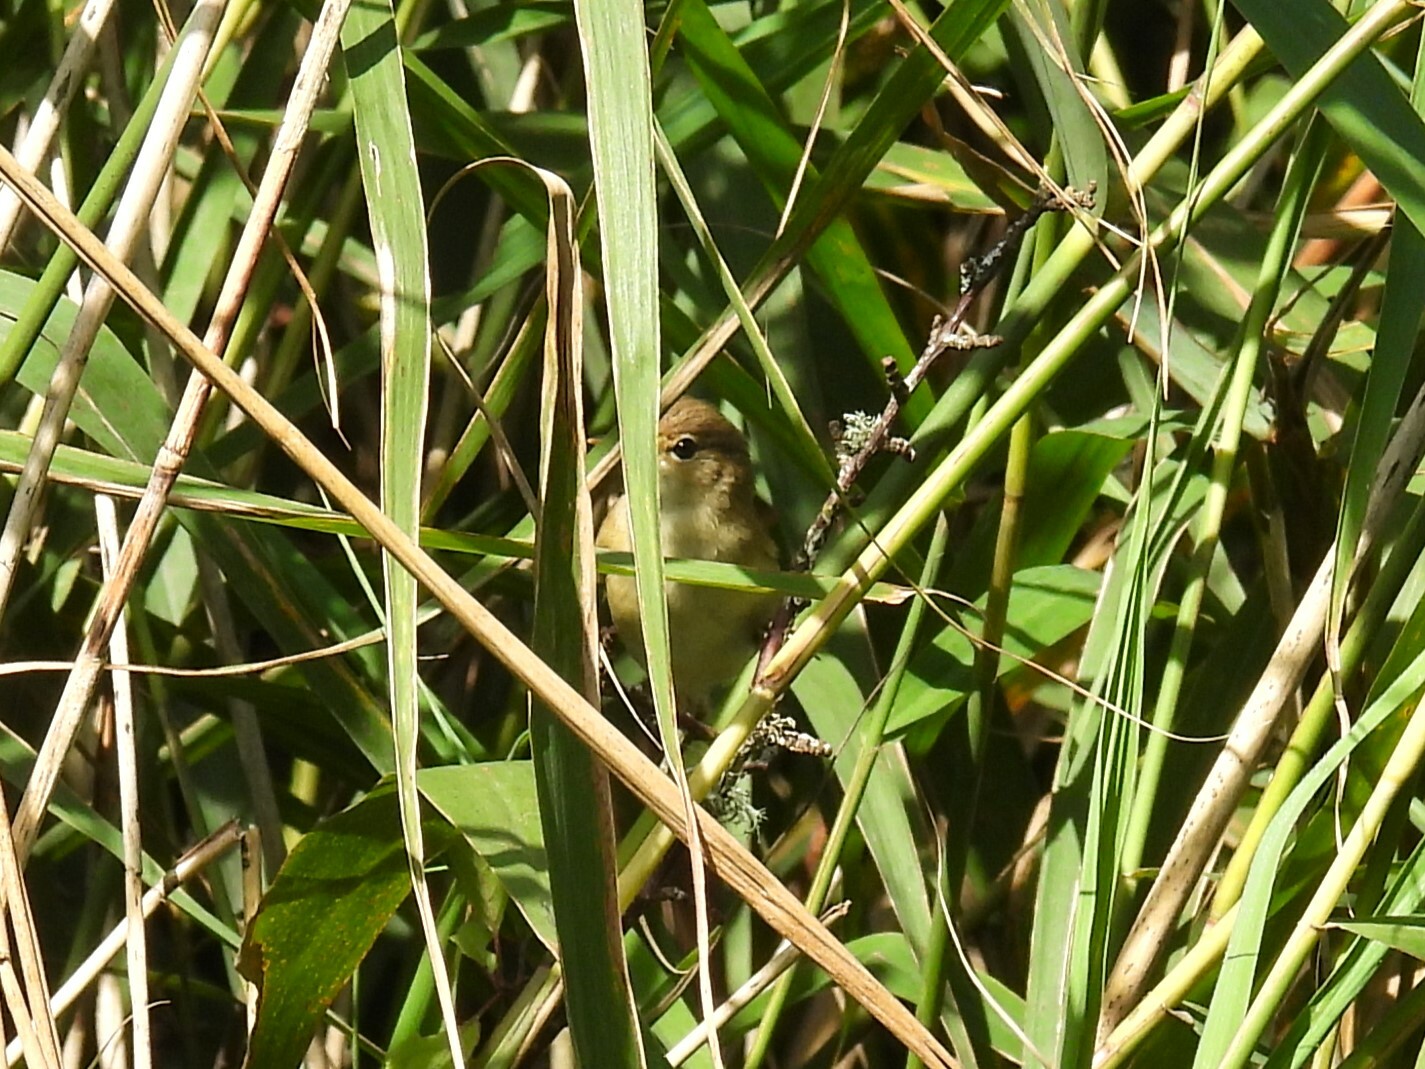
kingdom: Animalia
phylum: Chordata
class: Aves
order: Passeriformes
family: Acrocephalidae
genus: Acrocephalus
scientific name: Acrocephalus scirpaceus
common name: Eurasian reed warbler
